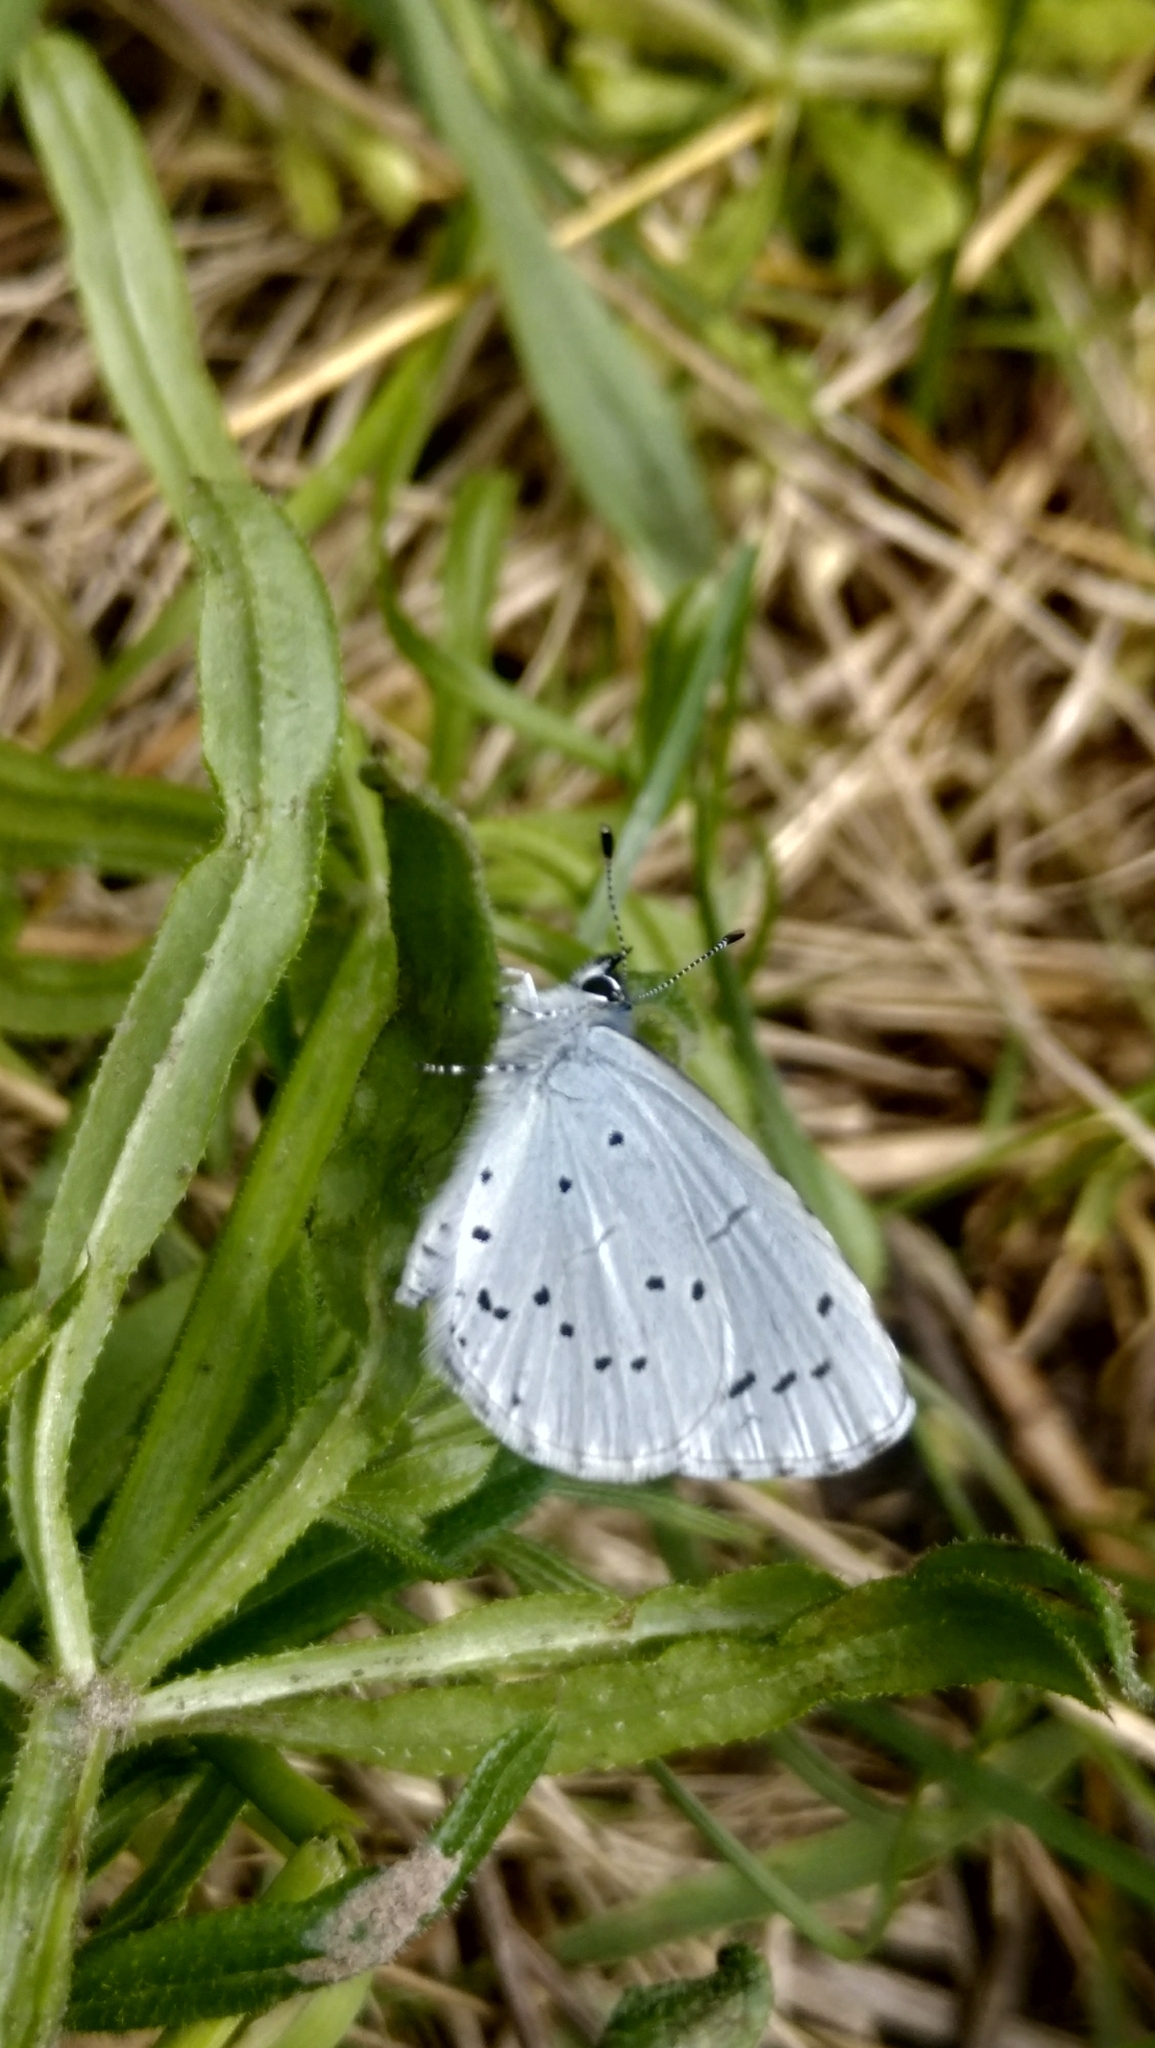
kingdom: Animalia
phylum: Arthropoda
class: Insecta
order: Lepidoptera
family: Lycaenidae
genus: Celastrina
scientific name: Celastrina argiolus
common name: Holly blue
